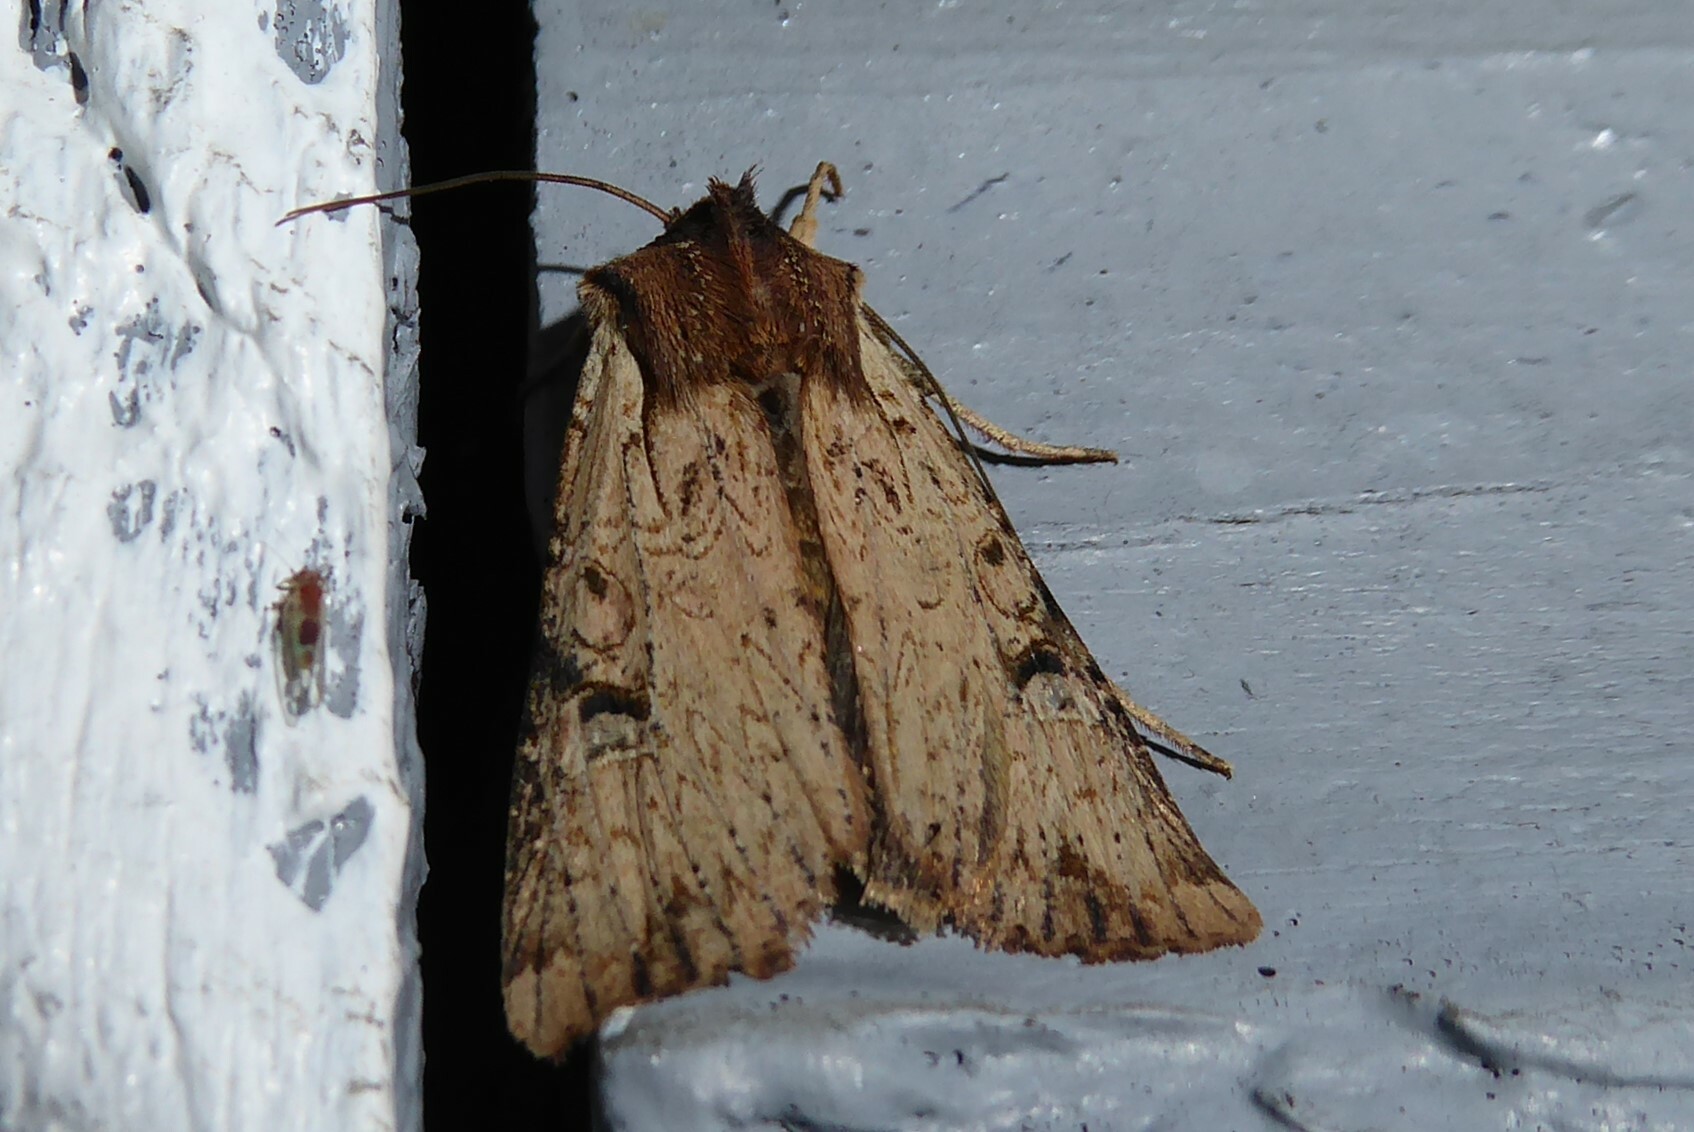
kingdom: Animalia
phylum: Arthropoda
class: Insecta
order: Lepidoptera
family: Noctuidae
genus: Ichneutica
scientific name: Ichneutica omoplaca
